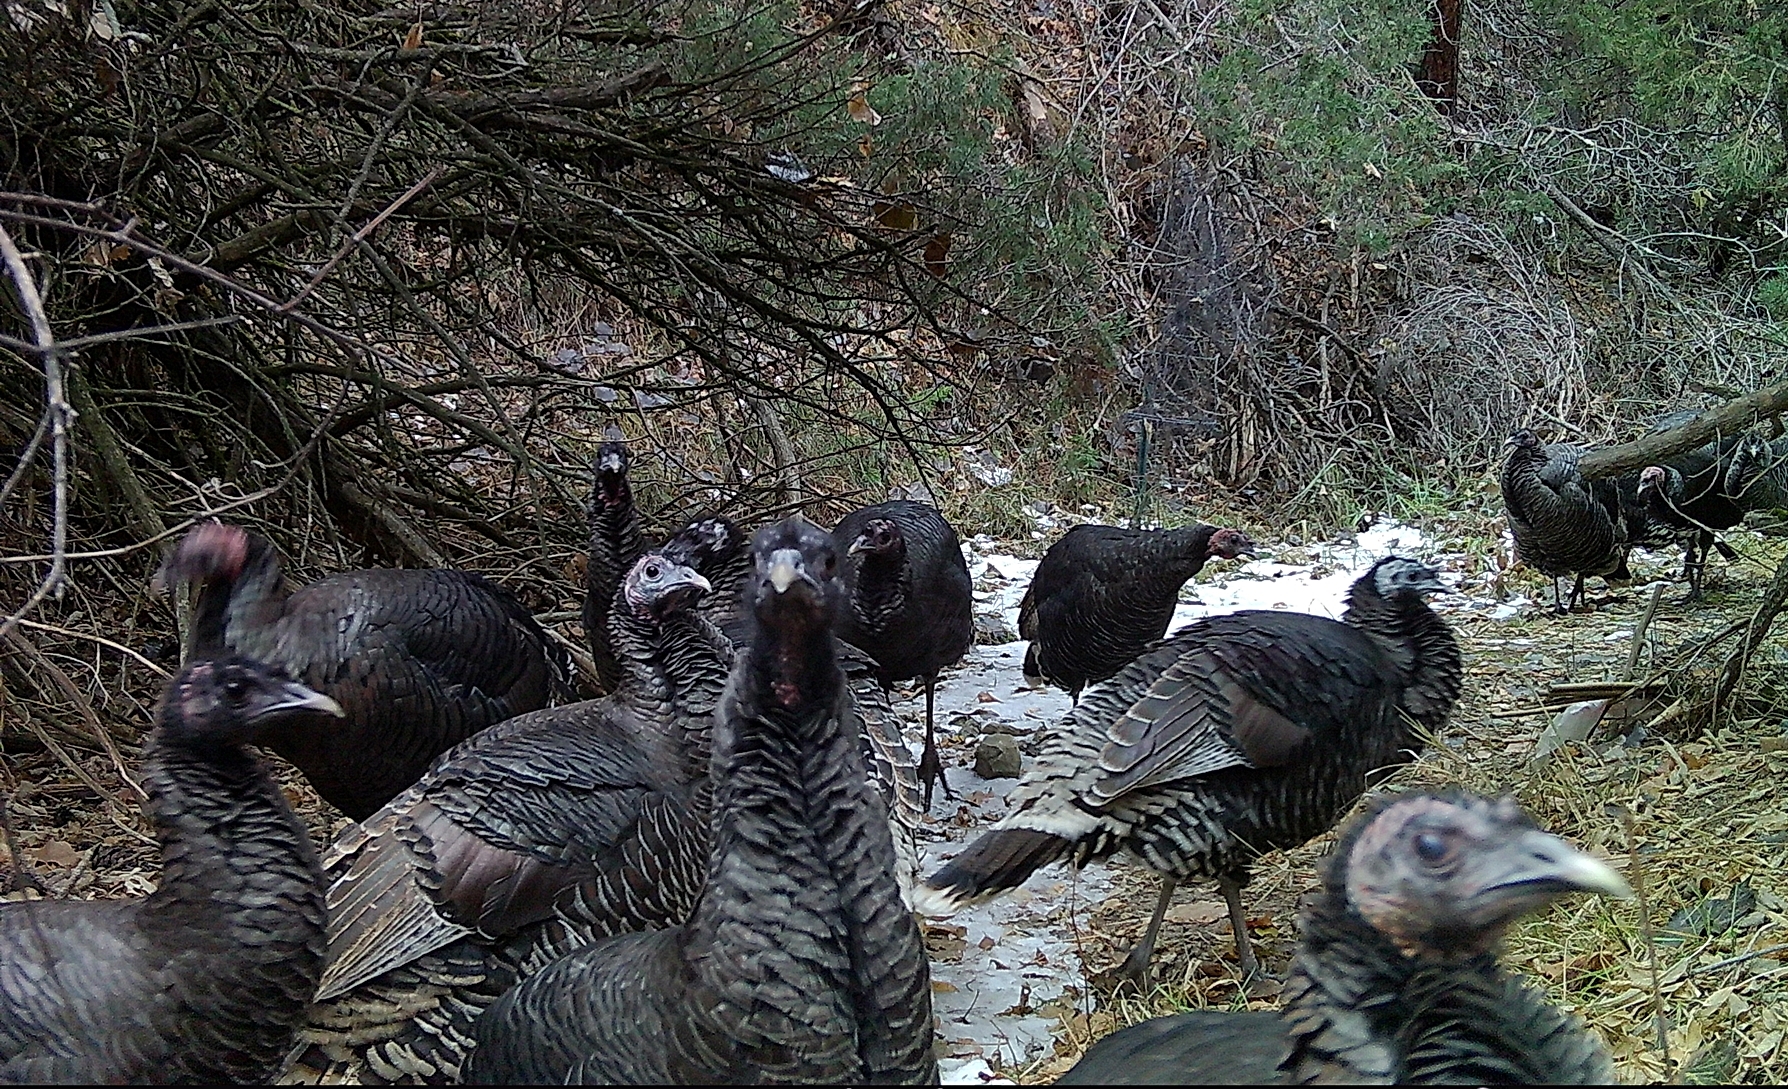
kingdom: Animalia
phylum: Chordata
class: Aves
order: Galliformes
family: Phasianidae
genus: Meleagris
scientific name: Meleagris gallopavo
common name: Wild turkey
